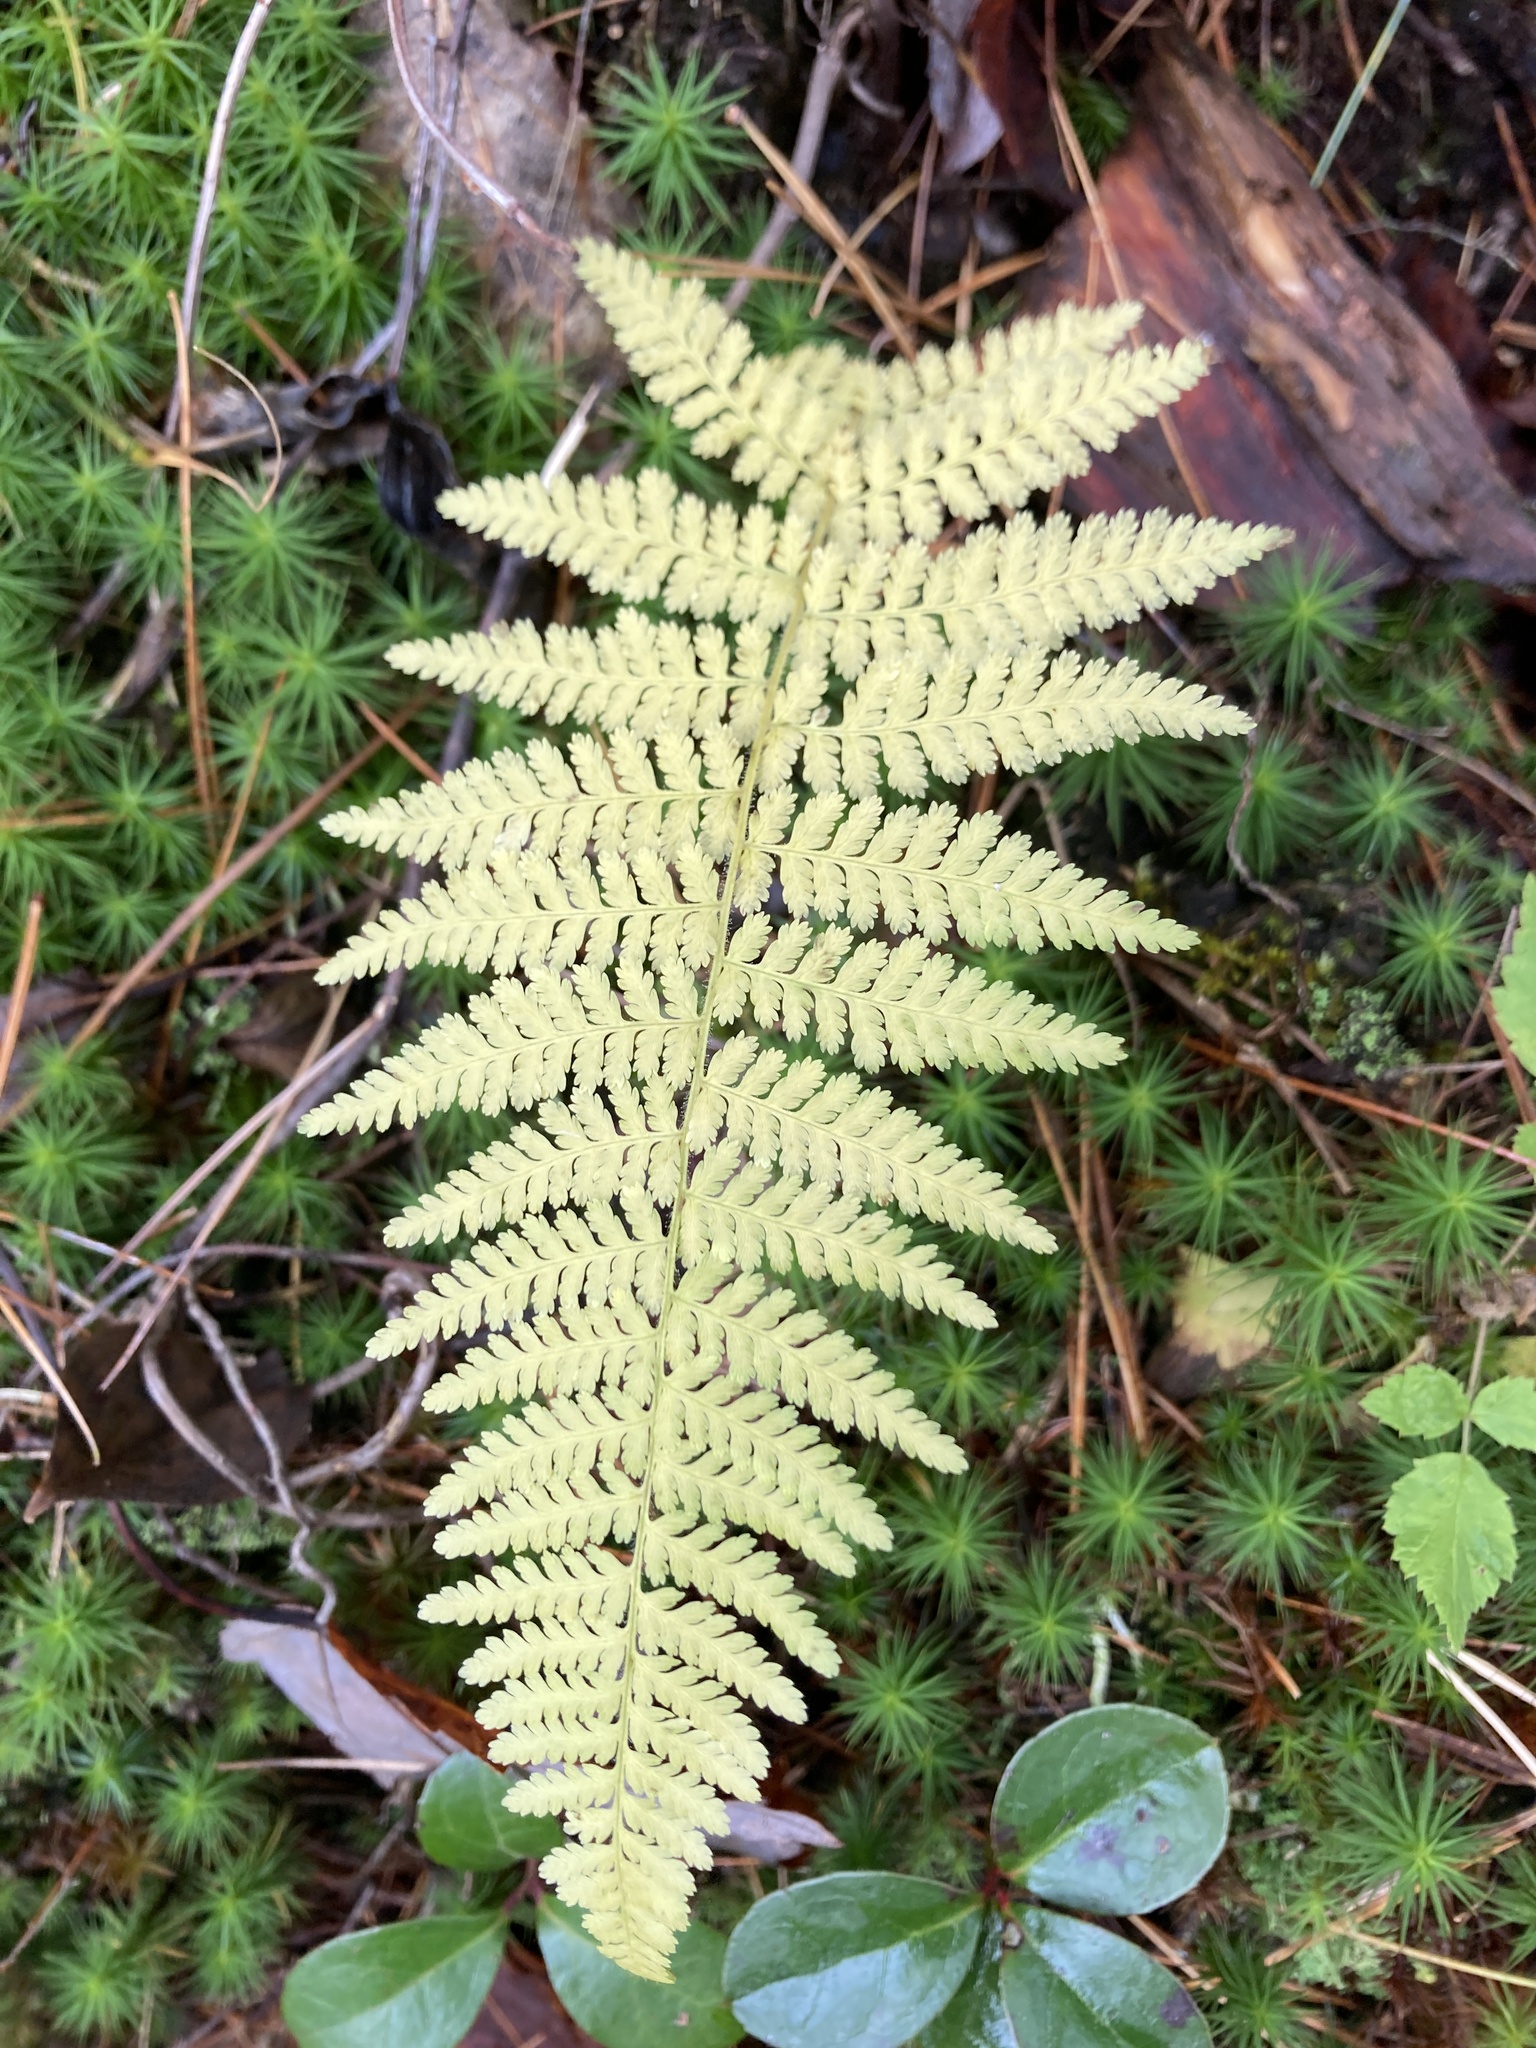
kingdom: Plantae
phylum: Tracheophyta
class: Polypodiopsida
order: Polypodiales
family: Dennstaedtiaceae
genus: Sitobolium
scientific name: Sitobolium punctilobum
